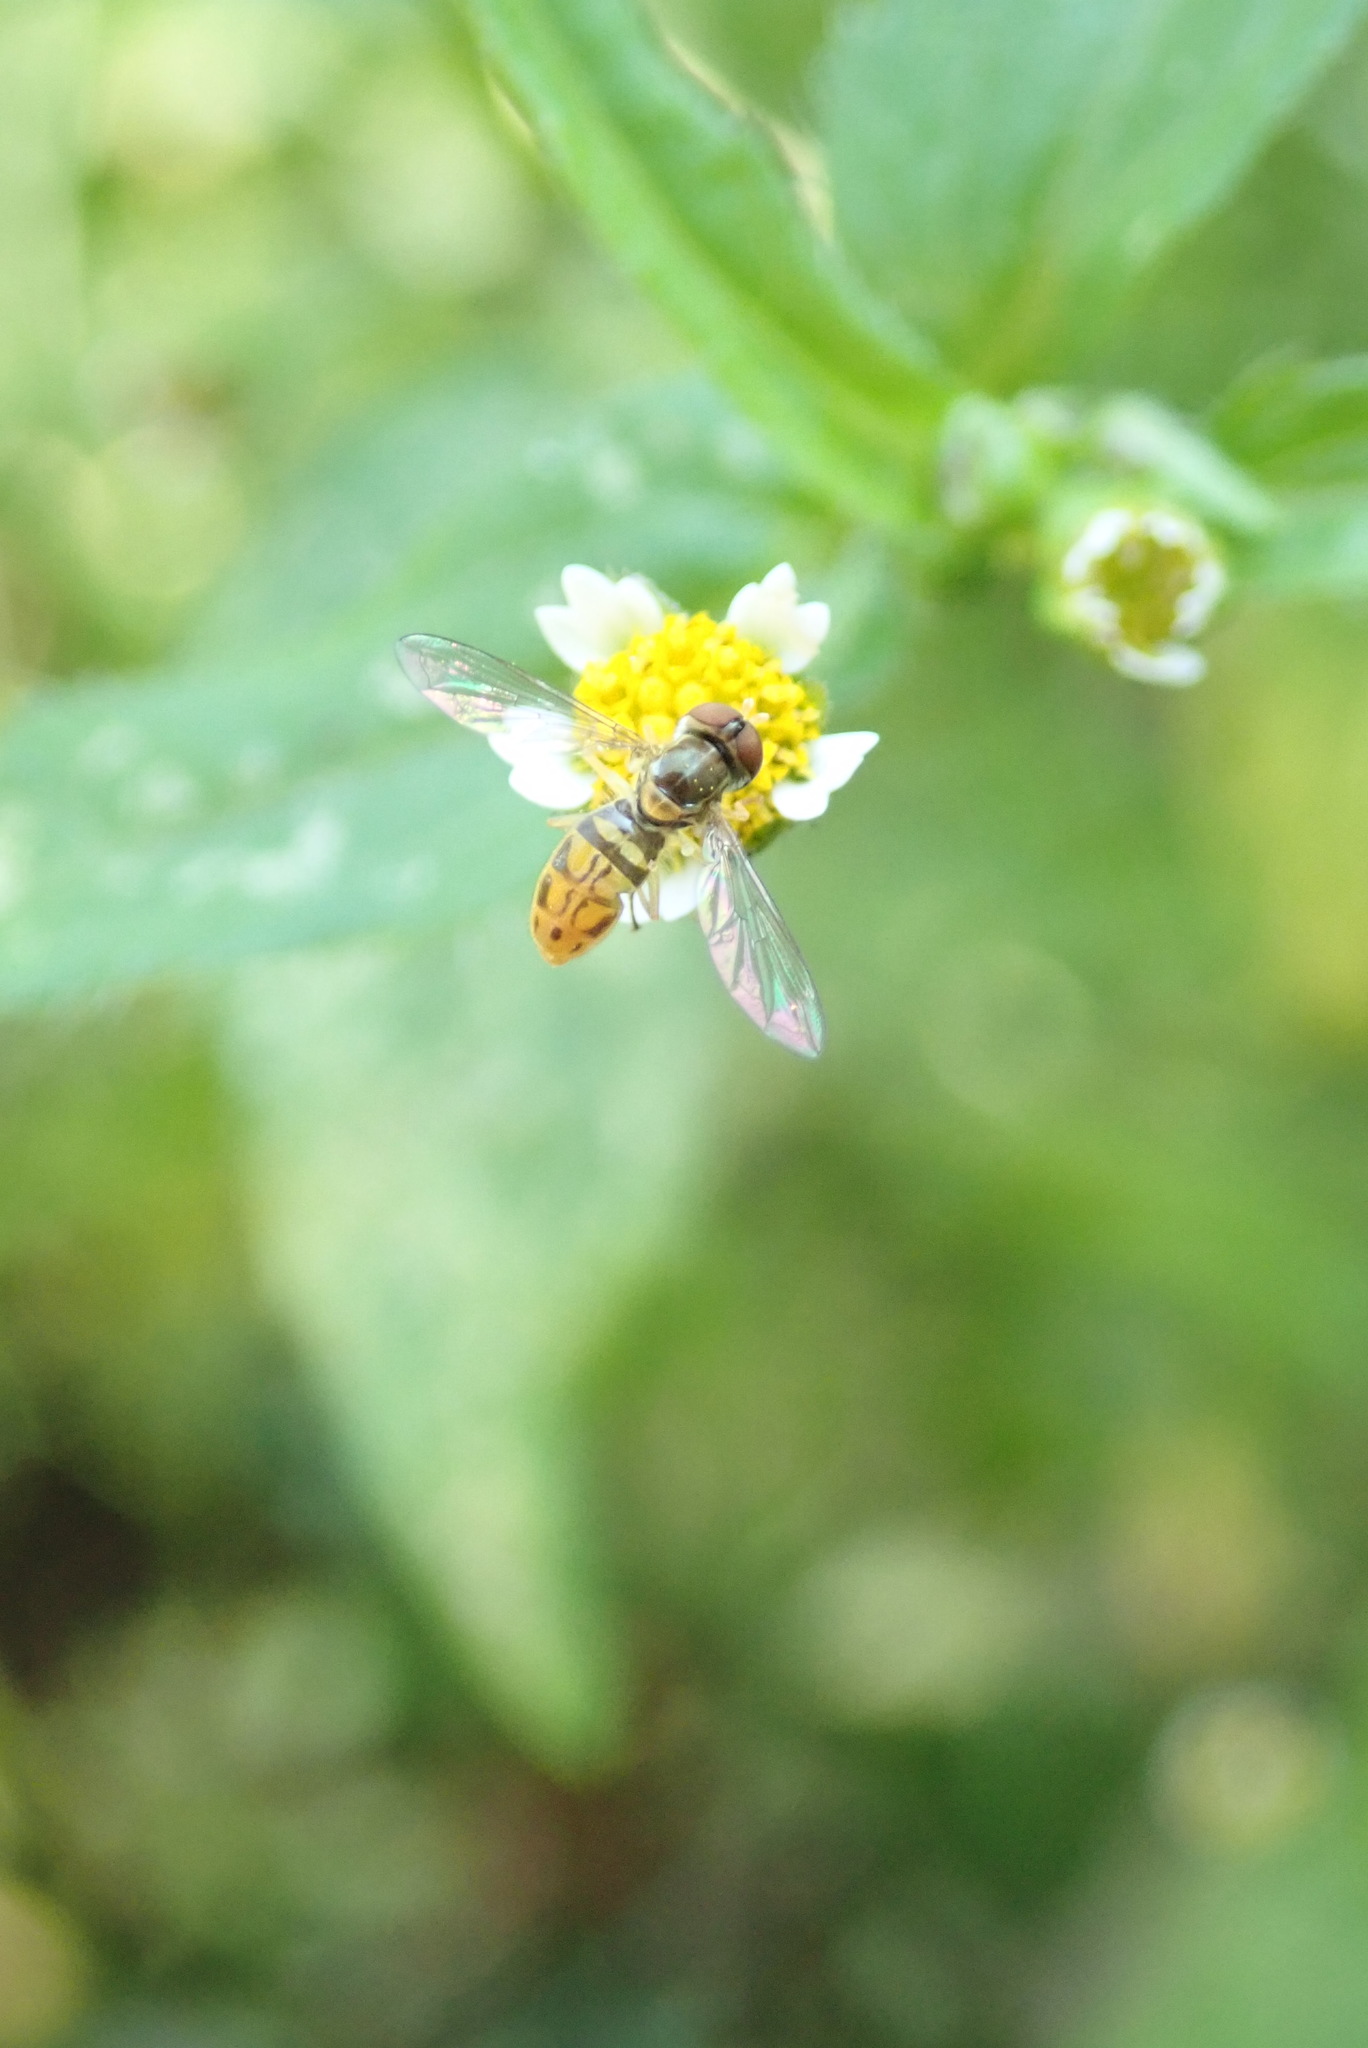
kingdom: Animalia
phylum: Arthropoda
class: Insecta
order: Diptera
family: Syrphidae
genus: Toxomerus
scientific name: Toxomerus marginatus
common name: Syrphid fly
